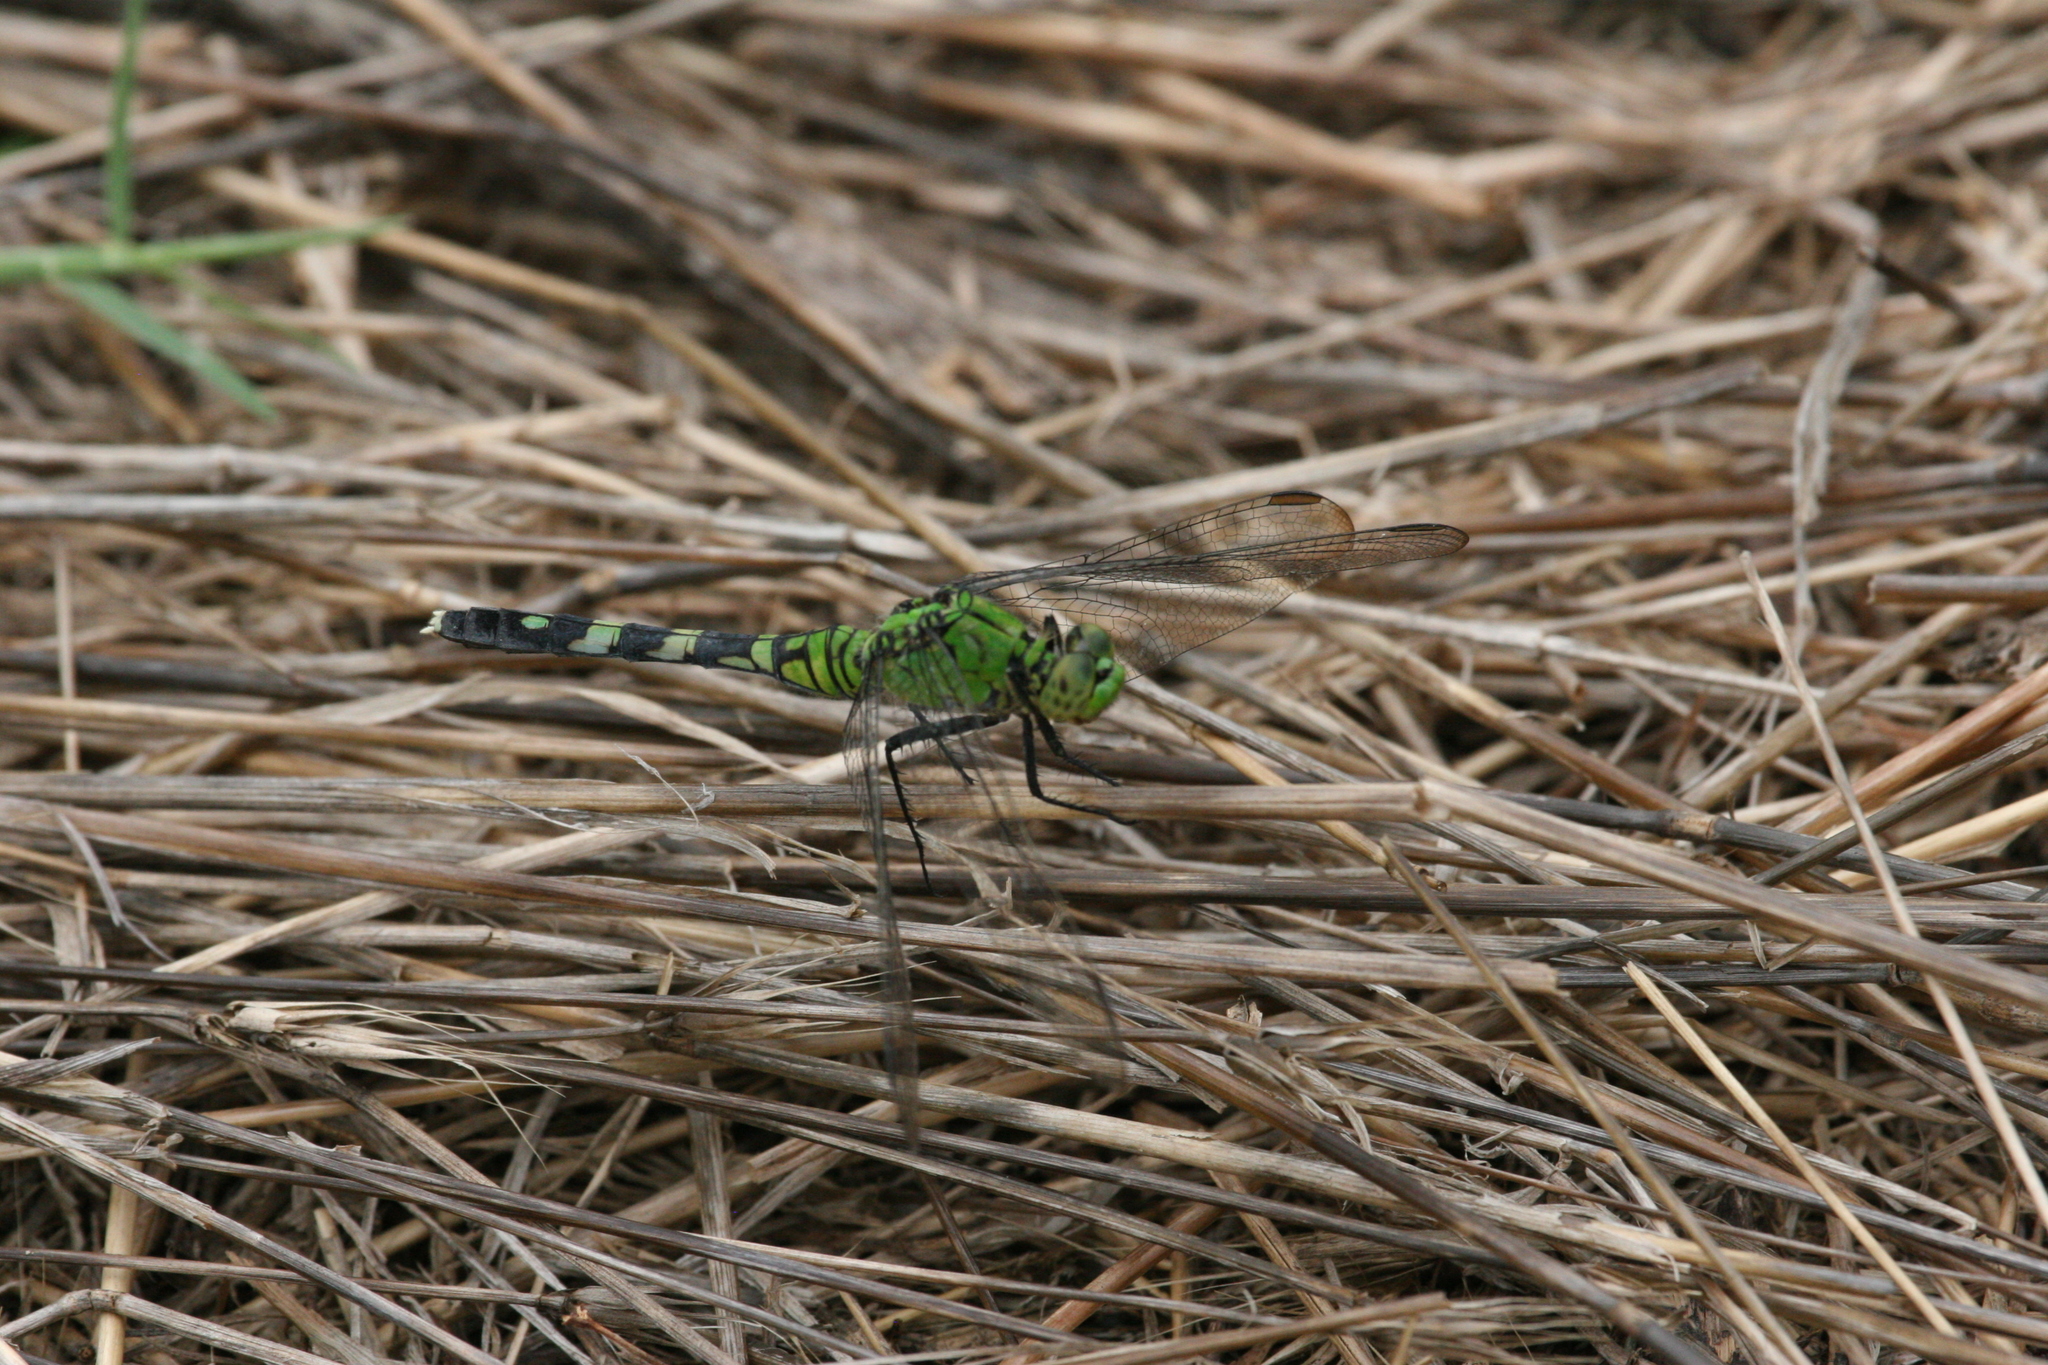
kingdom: Animalia
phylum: Arthropoda
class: Insecta
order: Odonata
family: Libellulidae
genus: Erythemis
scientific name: Erythemis simplicicollis
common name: Eastern pondhawk
